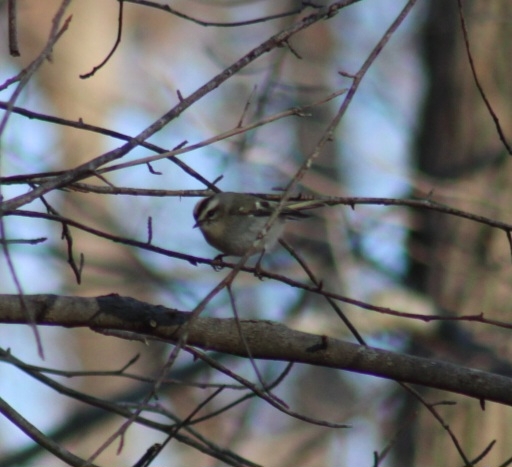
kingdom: Animalia
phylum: Chordata
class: Aves
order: Passeriformes
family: Regulidae
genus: Regulus
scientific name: Regulus satrapa
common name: Golden-crowned kinglet
